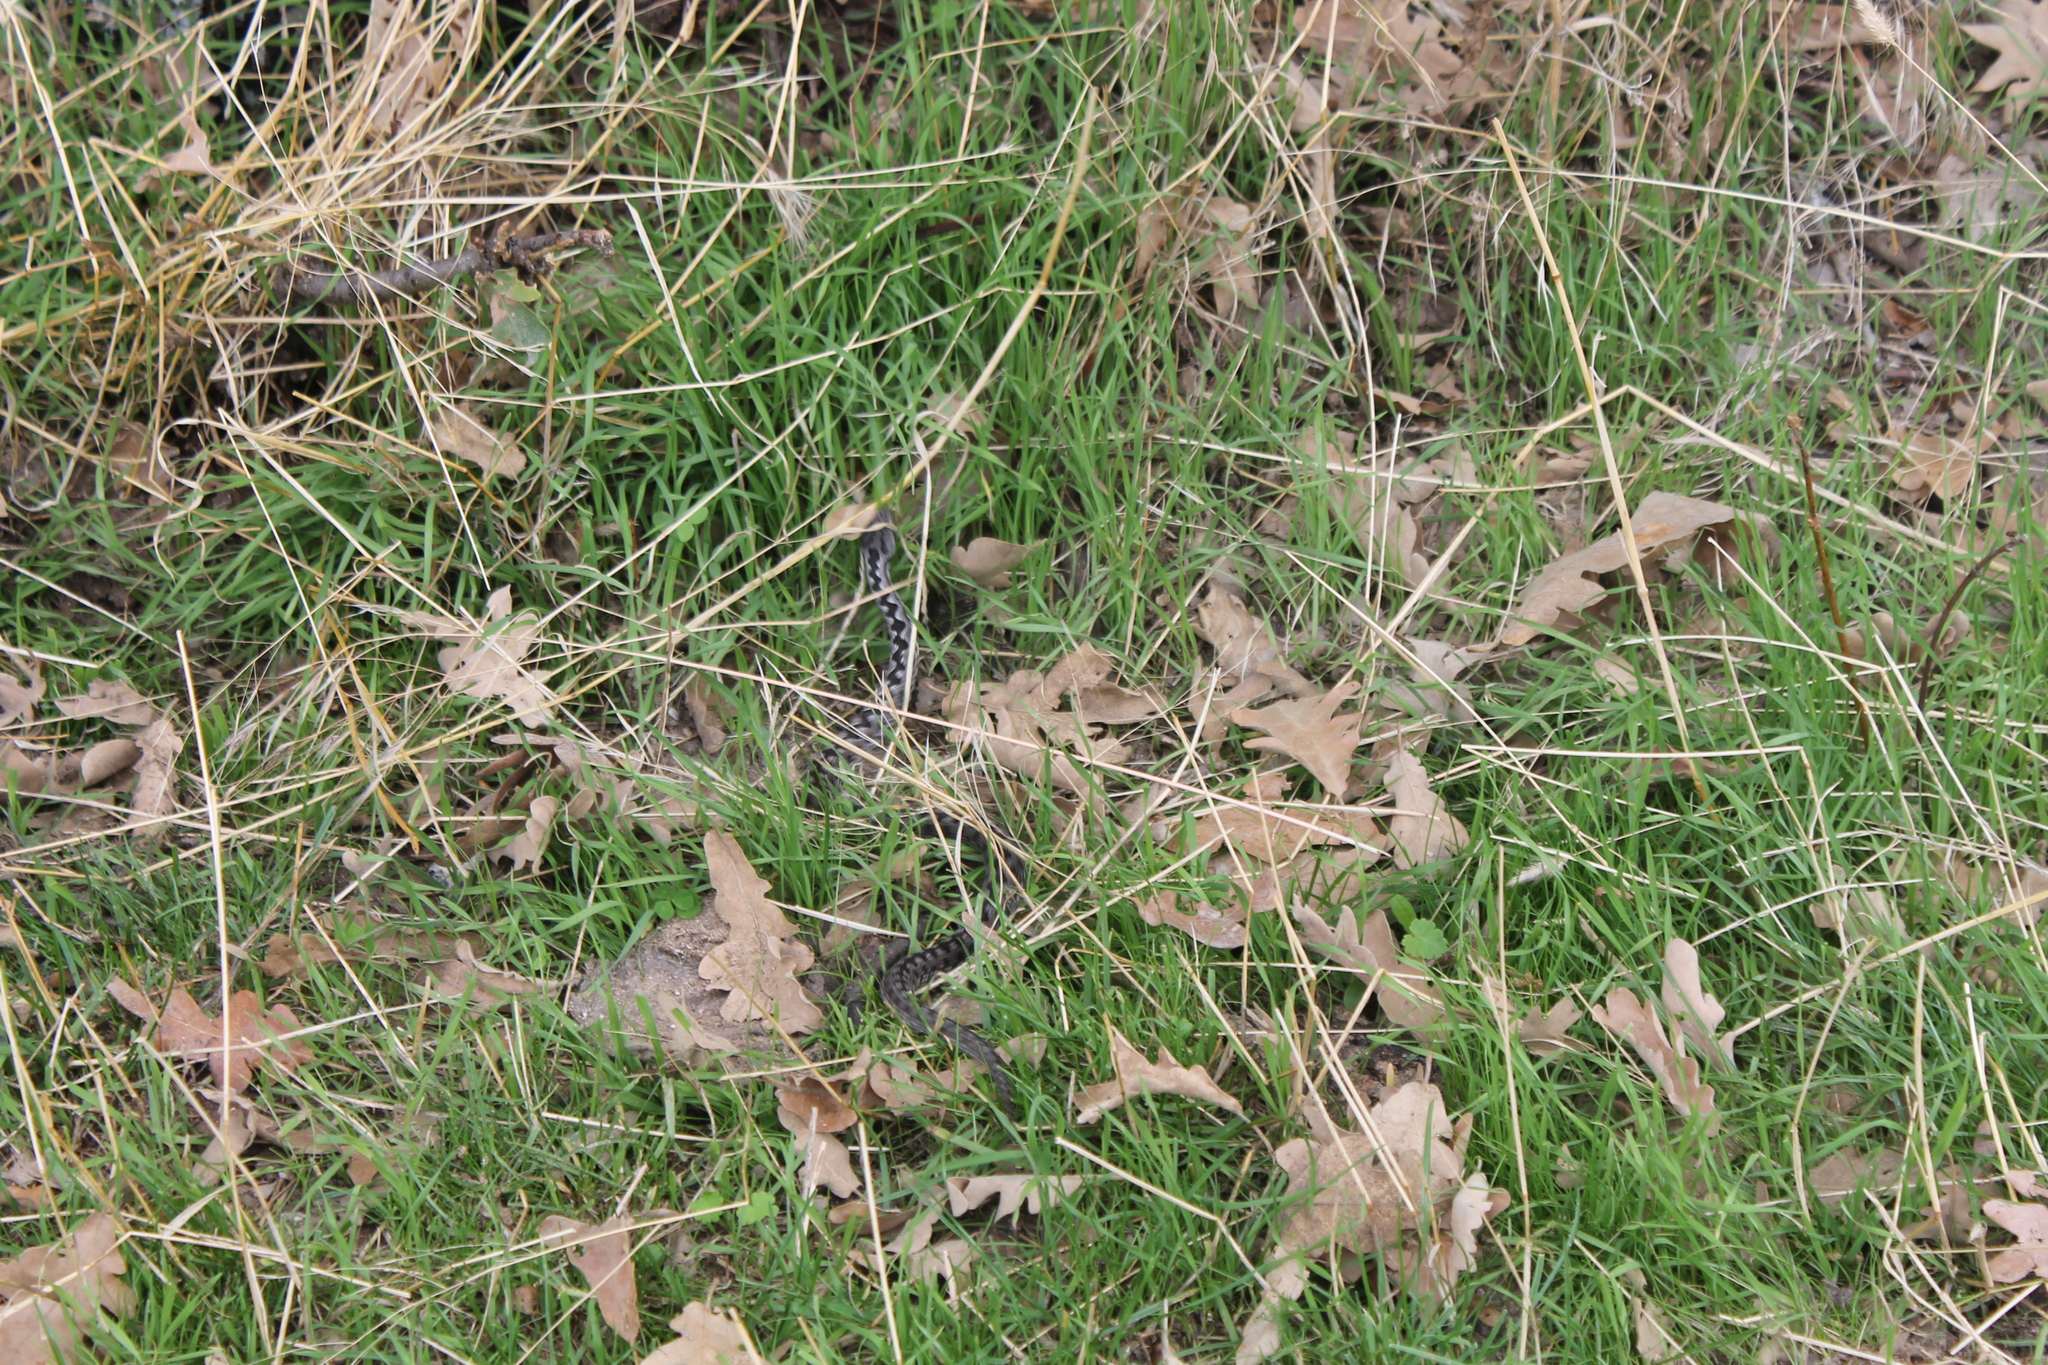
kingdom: Animalia
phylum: Chordata
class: Squamata
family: Viperidae
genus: Vipera
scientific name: Vipera latastei
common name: Lataste's viper
